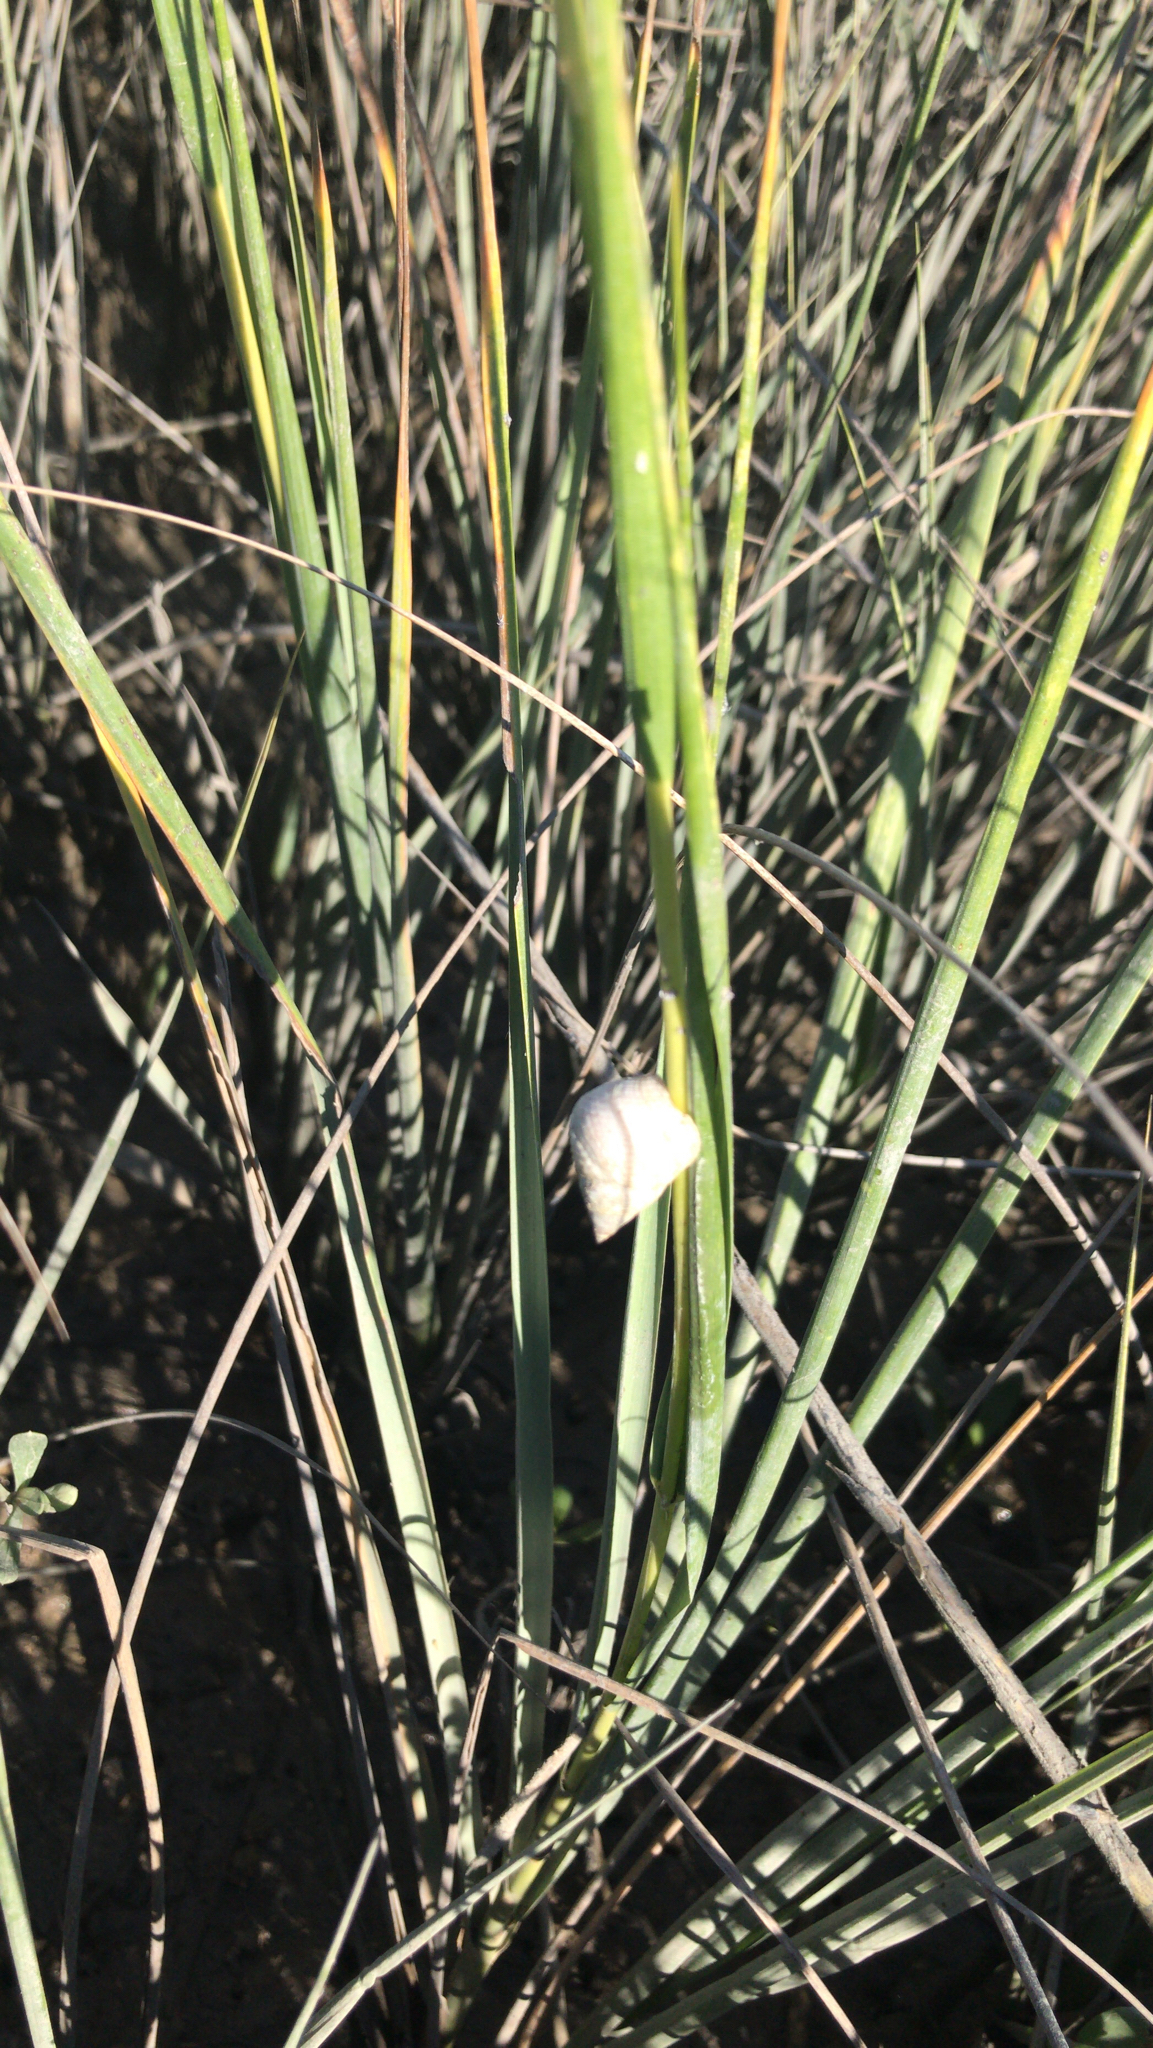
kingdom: Animalia
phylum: Mollusca
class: Gastropoda
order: Littorinimorpha
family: Littorinidae
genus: Littoraria
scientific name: Littoraria irrorata
